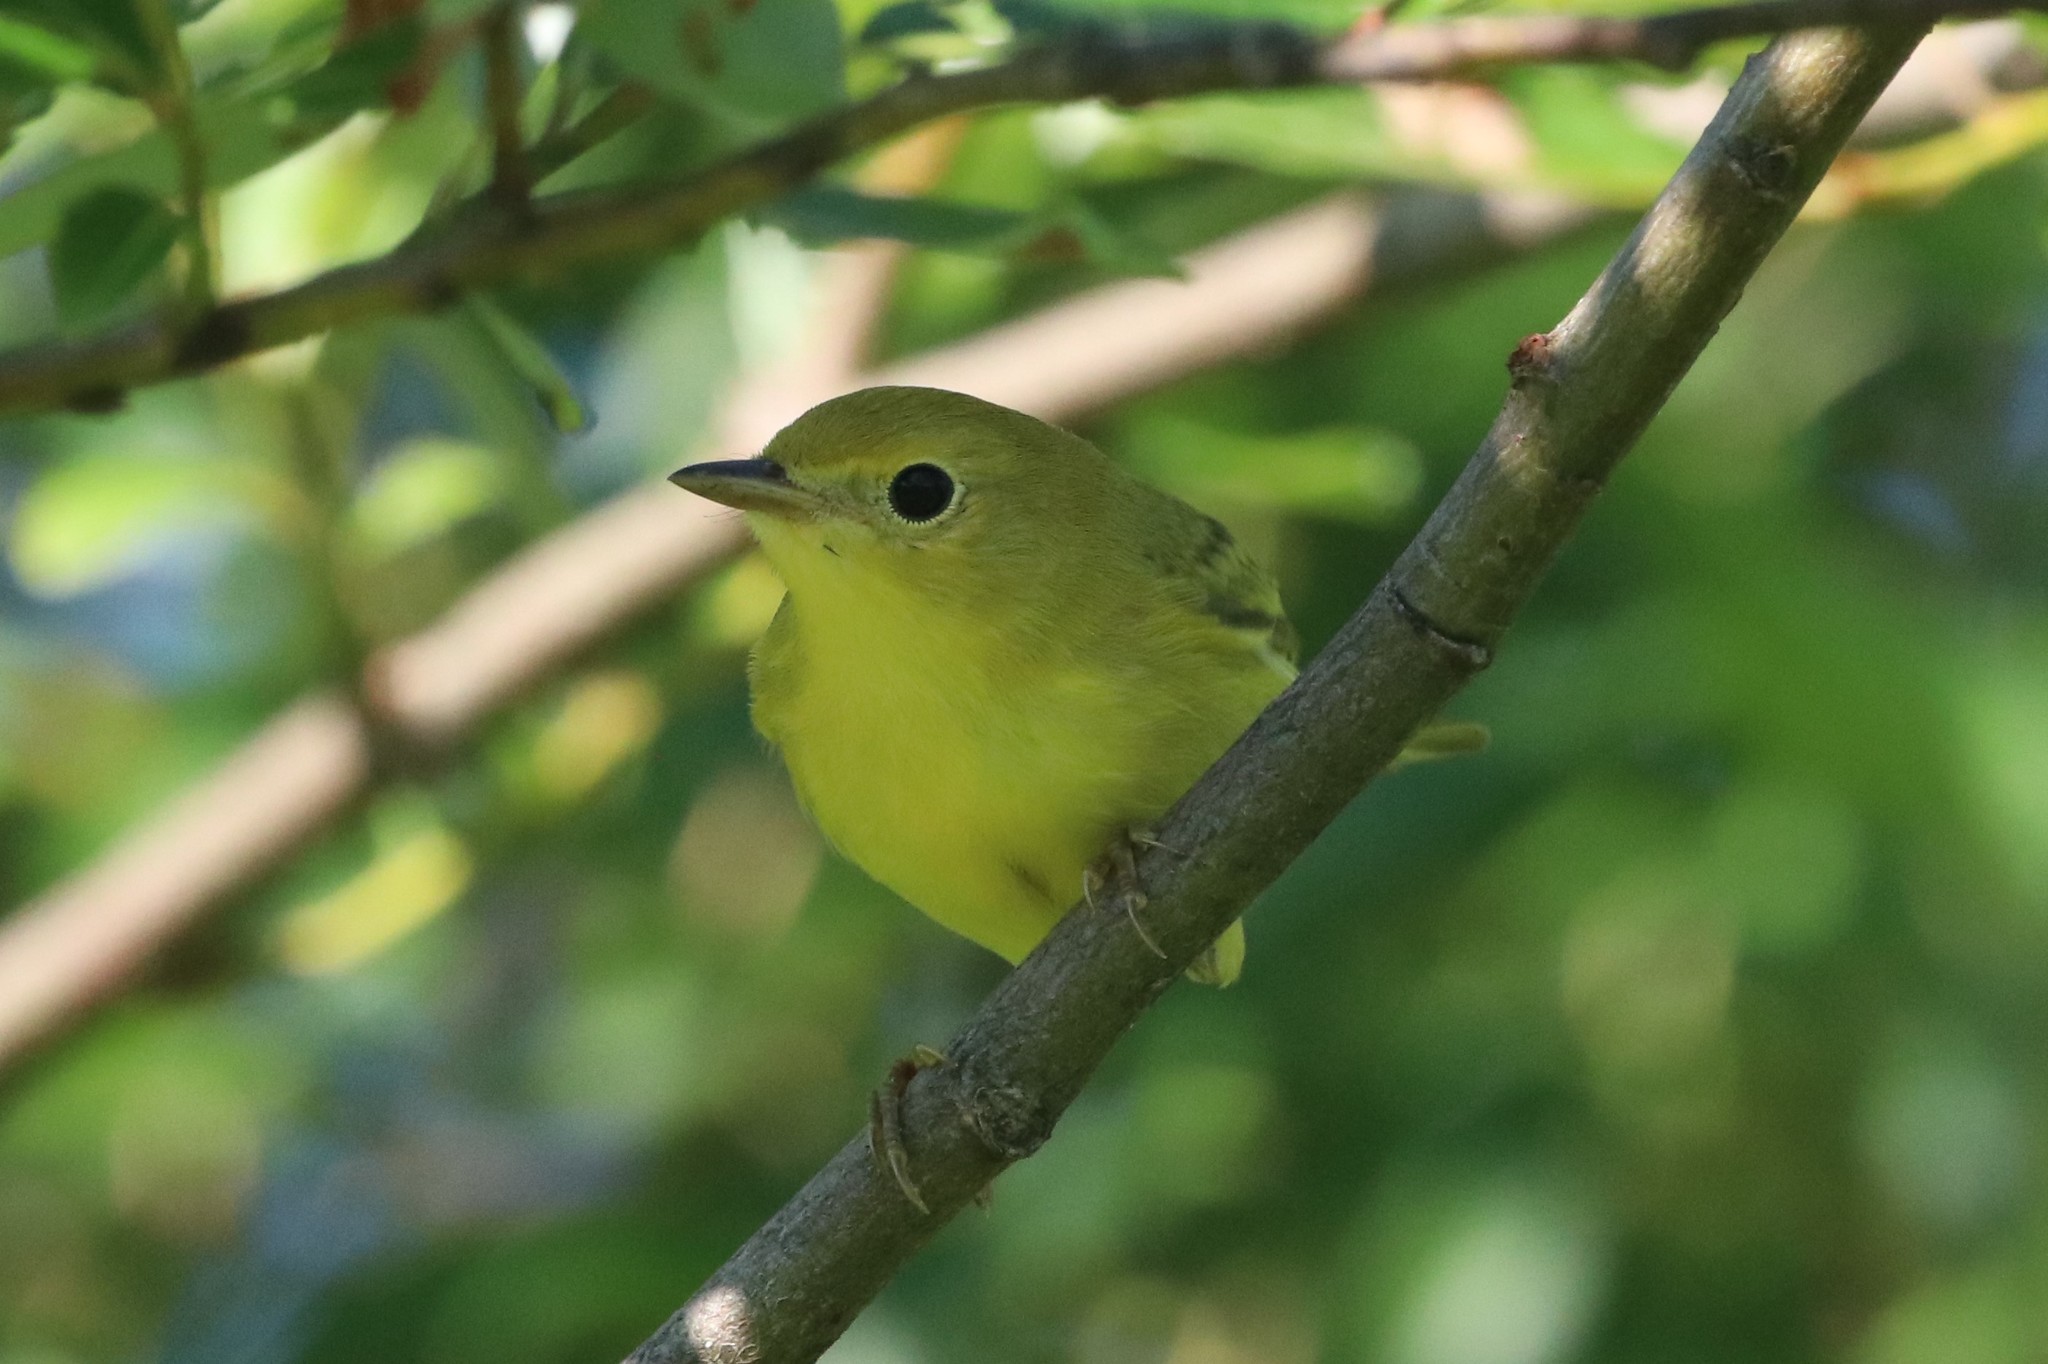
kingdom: Animalia
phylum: Chordata
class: Aves
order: Passeriformes
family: Parulidae
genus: Setophaga
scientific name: Setophaga petechia
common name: Yellow warbler
